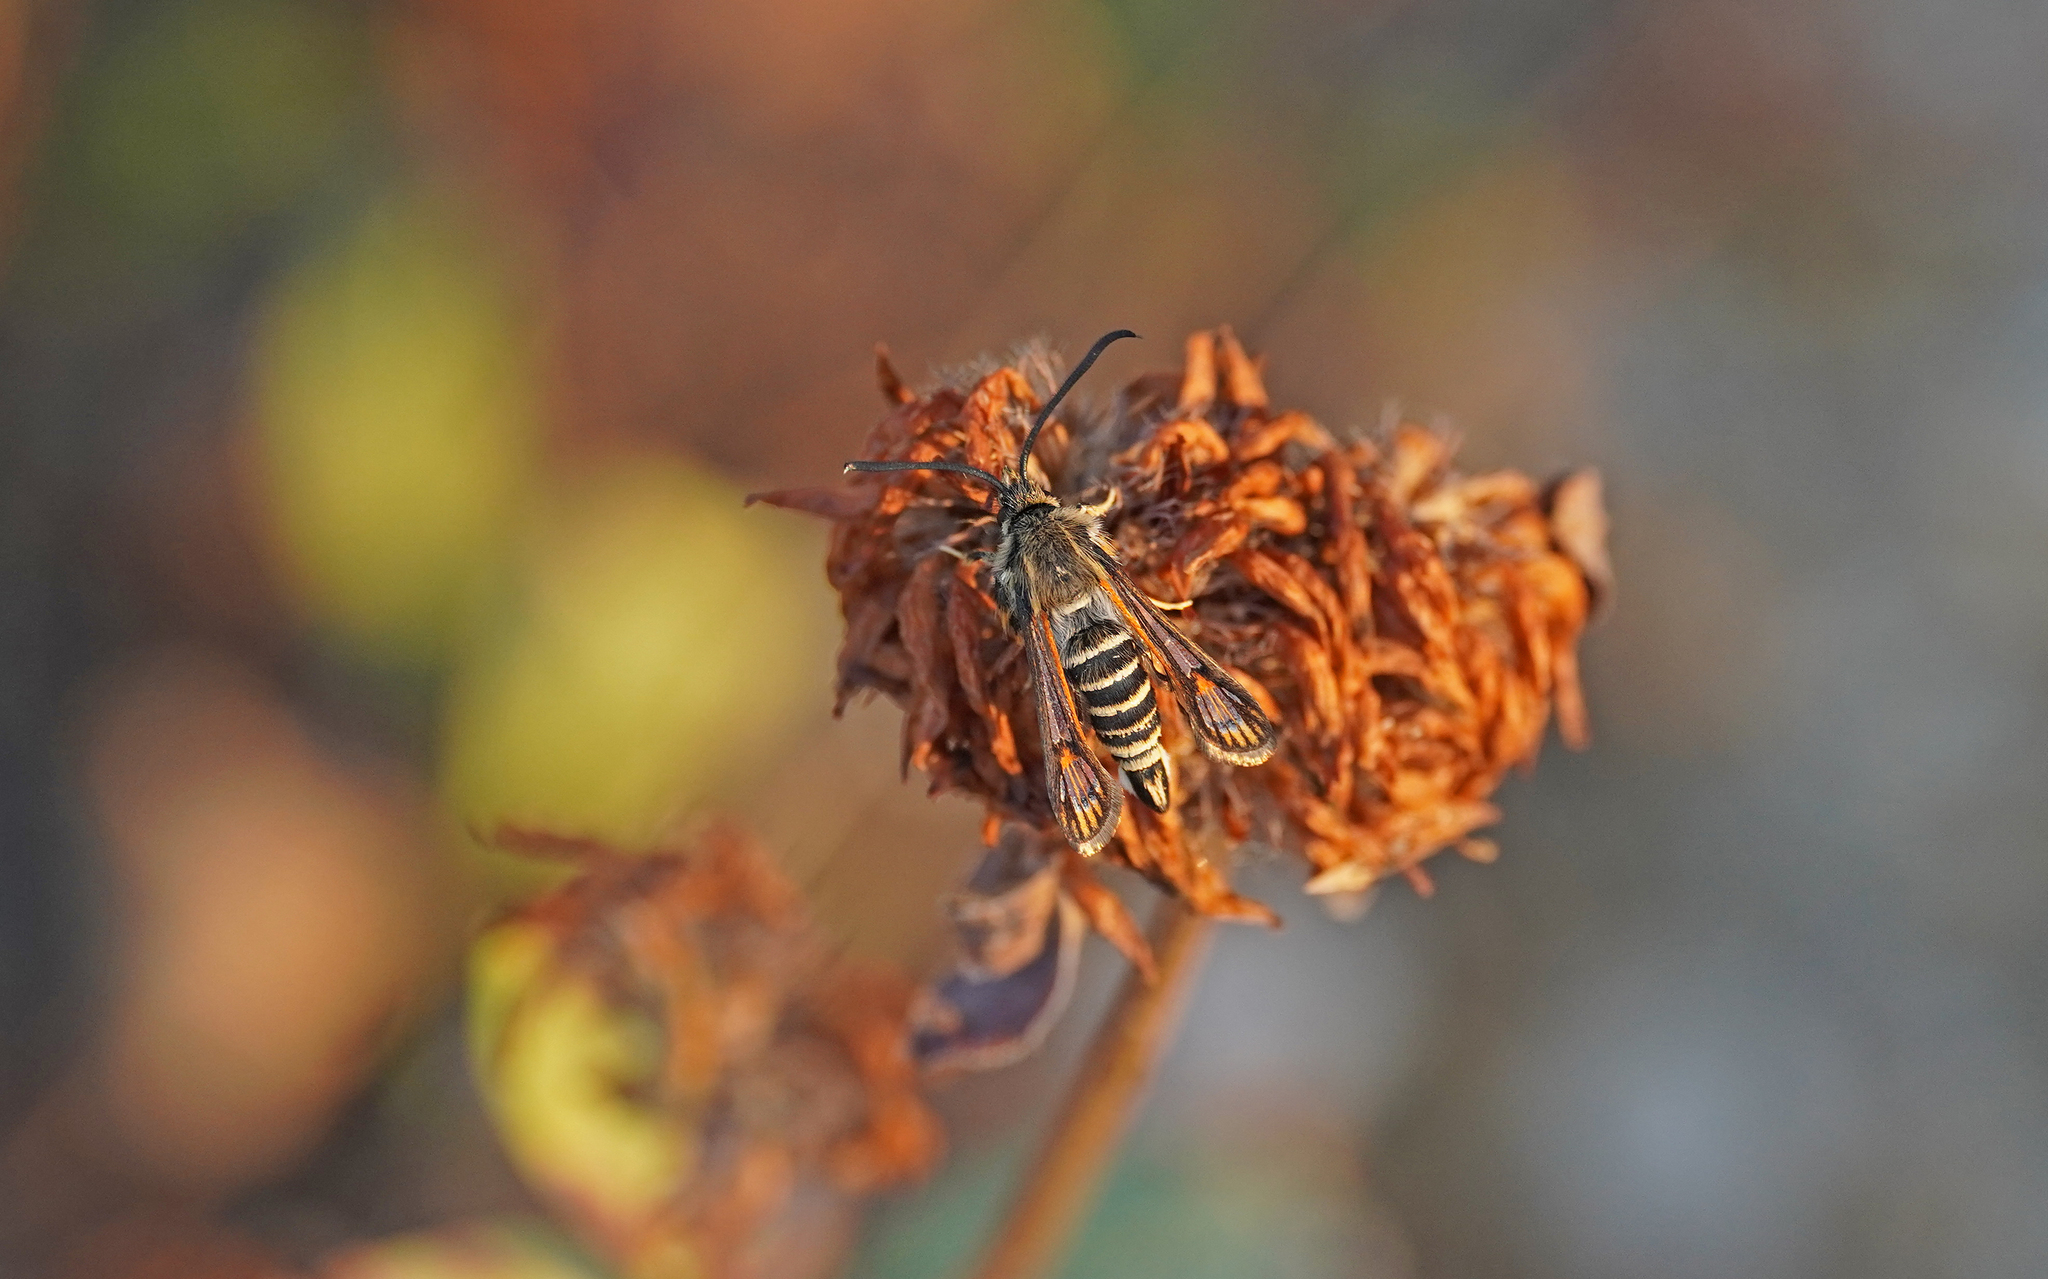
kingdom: Animalia
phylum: Arthropoda
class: Insecta
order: Lepidoptera
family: Sesiidae
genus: Bembecia
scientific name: Bembecia ichneumoniformis
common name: Six-belted clearwing
